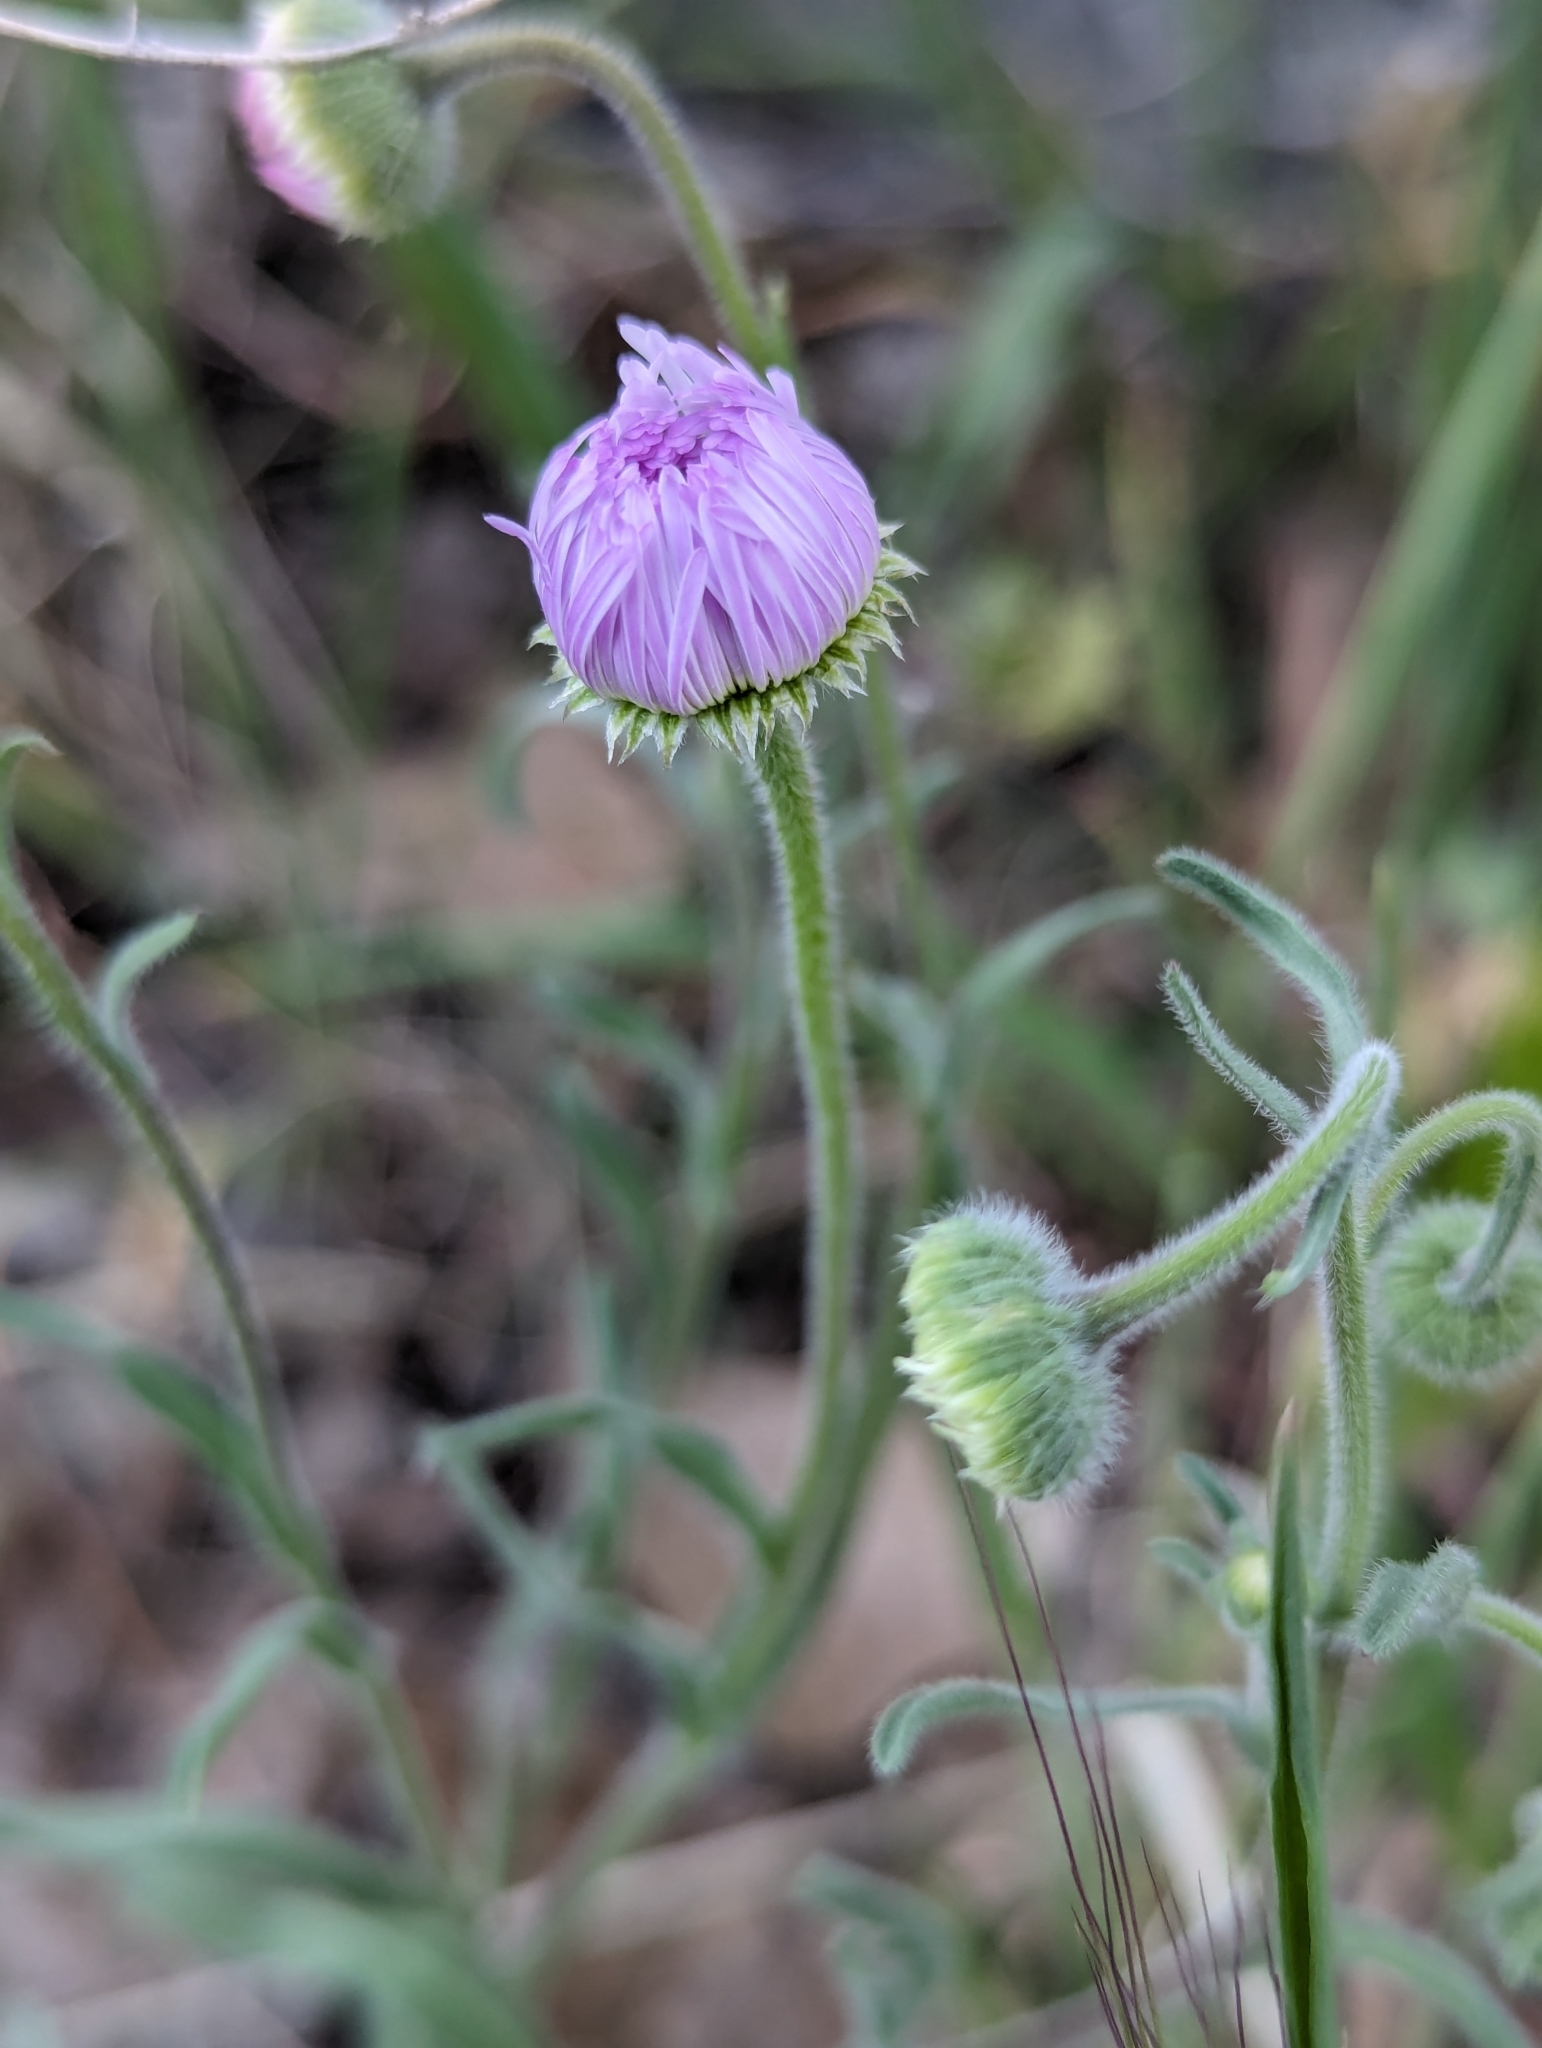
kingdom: Plantae
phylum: Tracheophyta
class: Magnoliopsida
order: Asterales
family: Asteraceae
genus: Erigeron
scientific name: Erigeron divergens
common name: Diffuse fleabane
